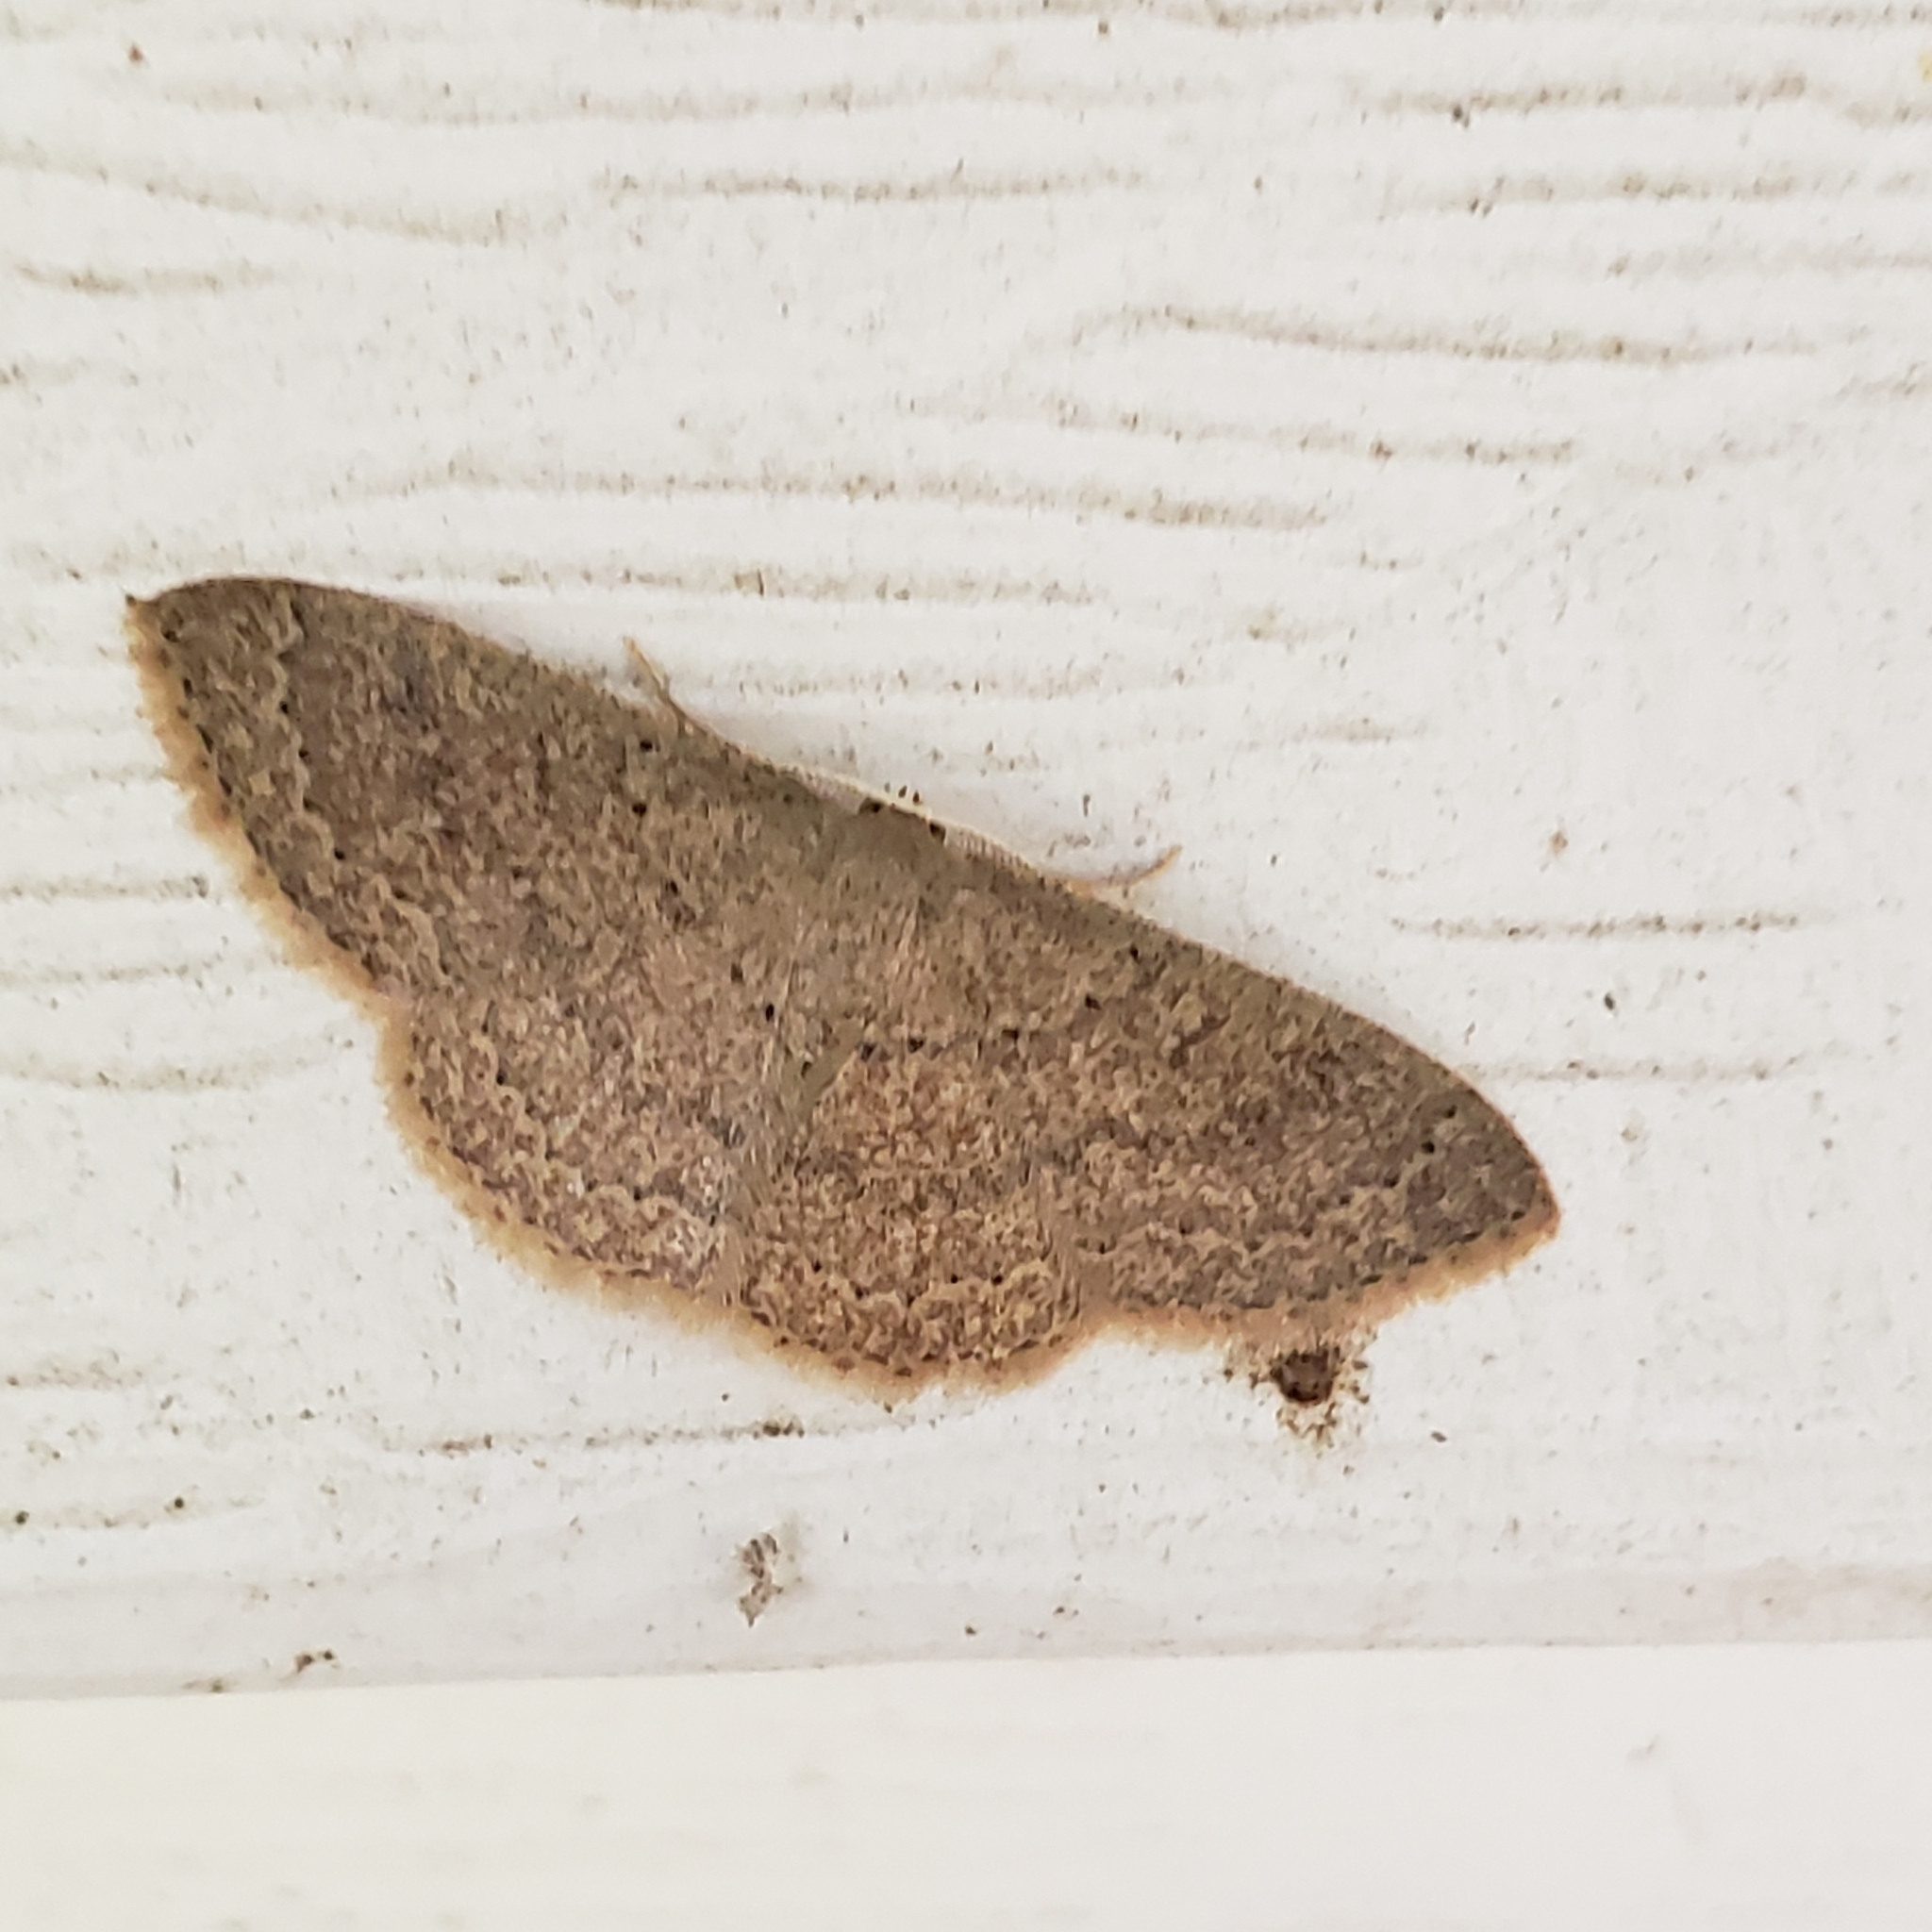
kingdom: Animalia
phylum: Arthropoda
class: Insecta
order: Lepidoptera
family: Geometridae
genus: Pleuroprucha
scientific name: Pleuroprucha insulsaria
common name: Common tan wave
